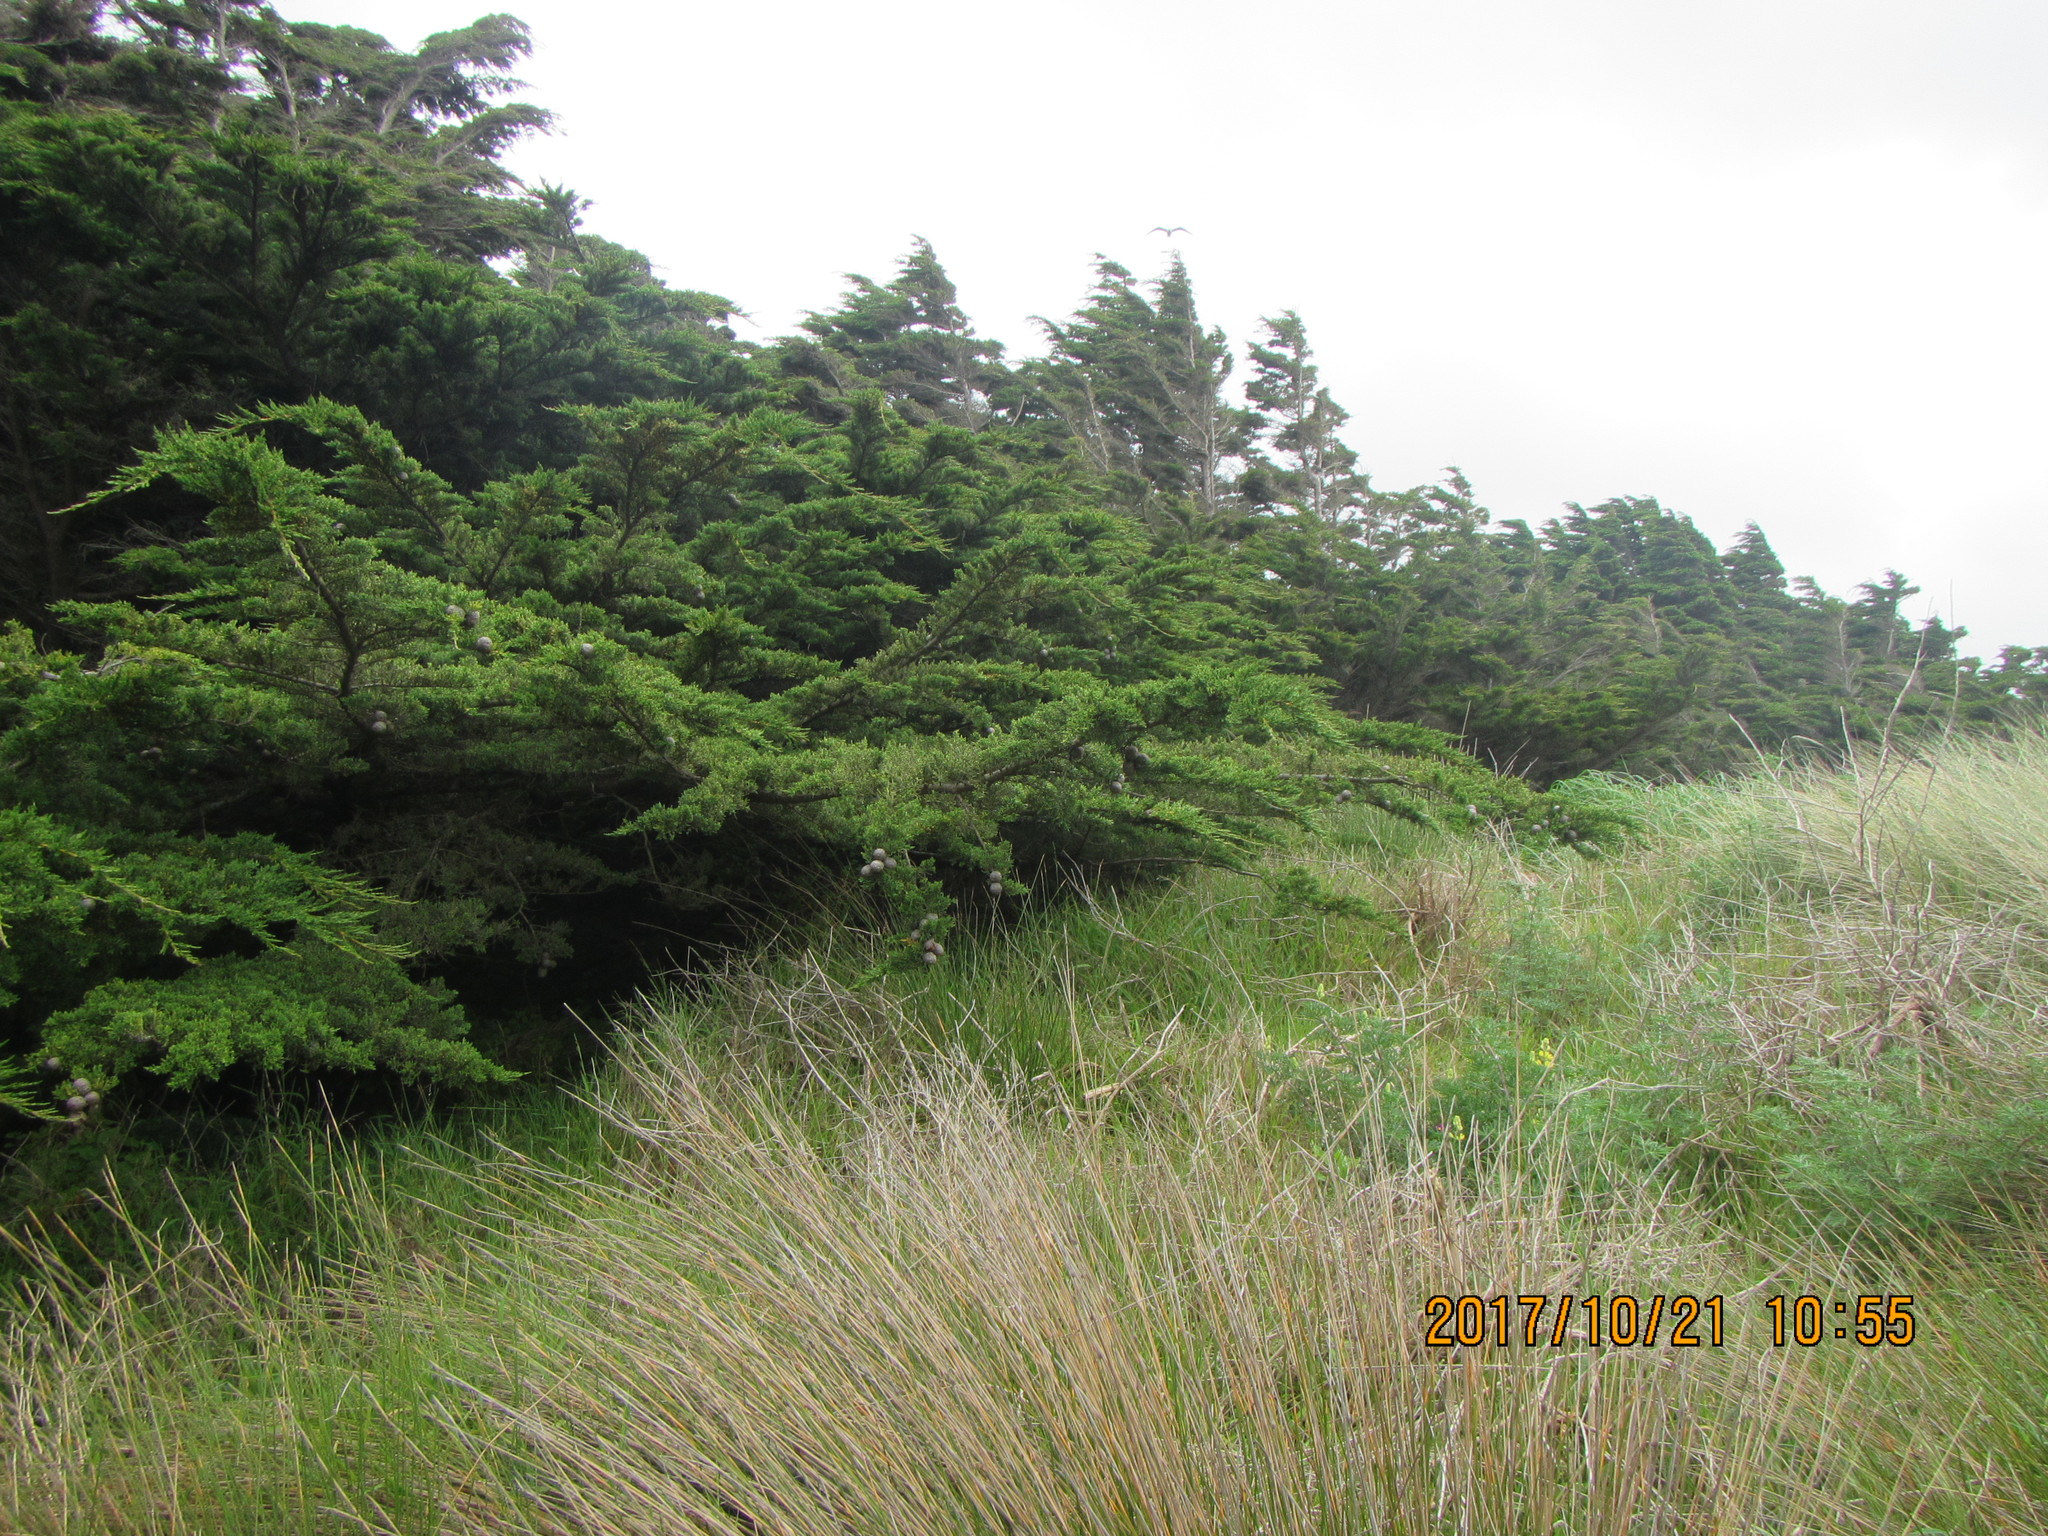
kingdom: Plantae
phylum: Tracheophyta
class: Pinopsida
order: Pinales
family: Cupressaceae
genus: Cupressus
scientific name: Cupressus macrocarpa
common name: Monterey cypress
